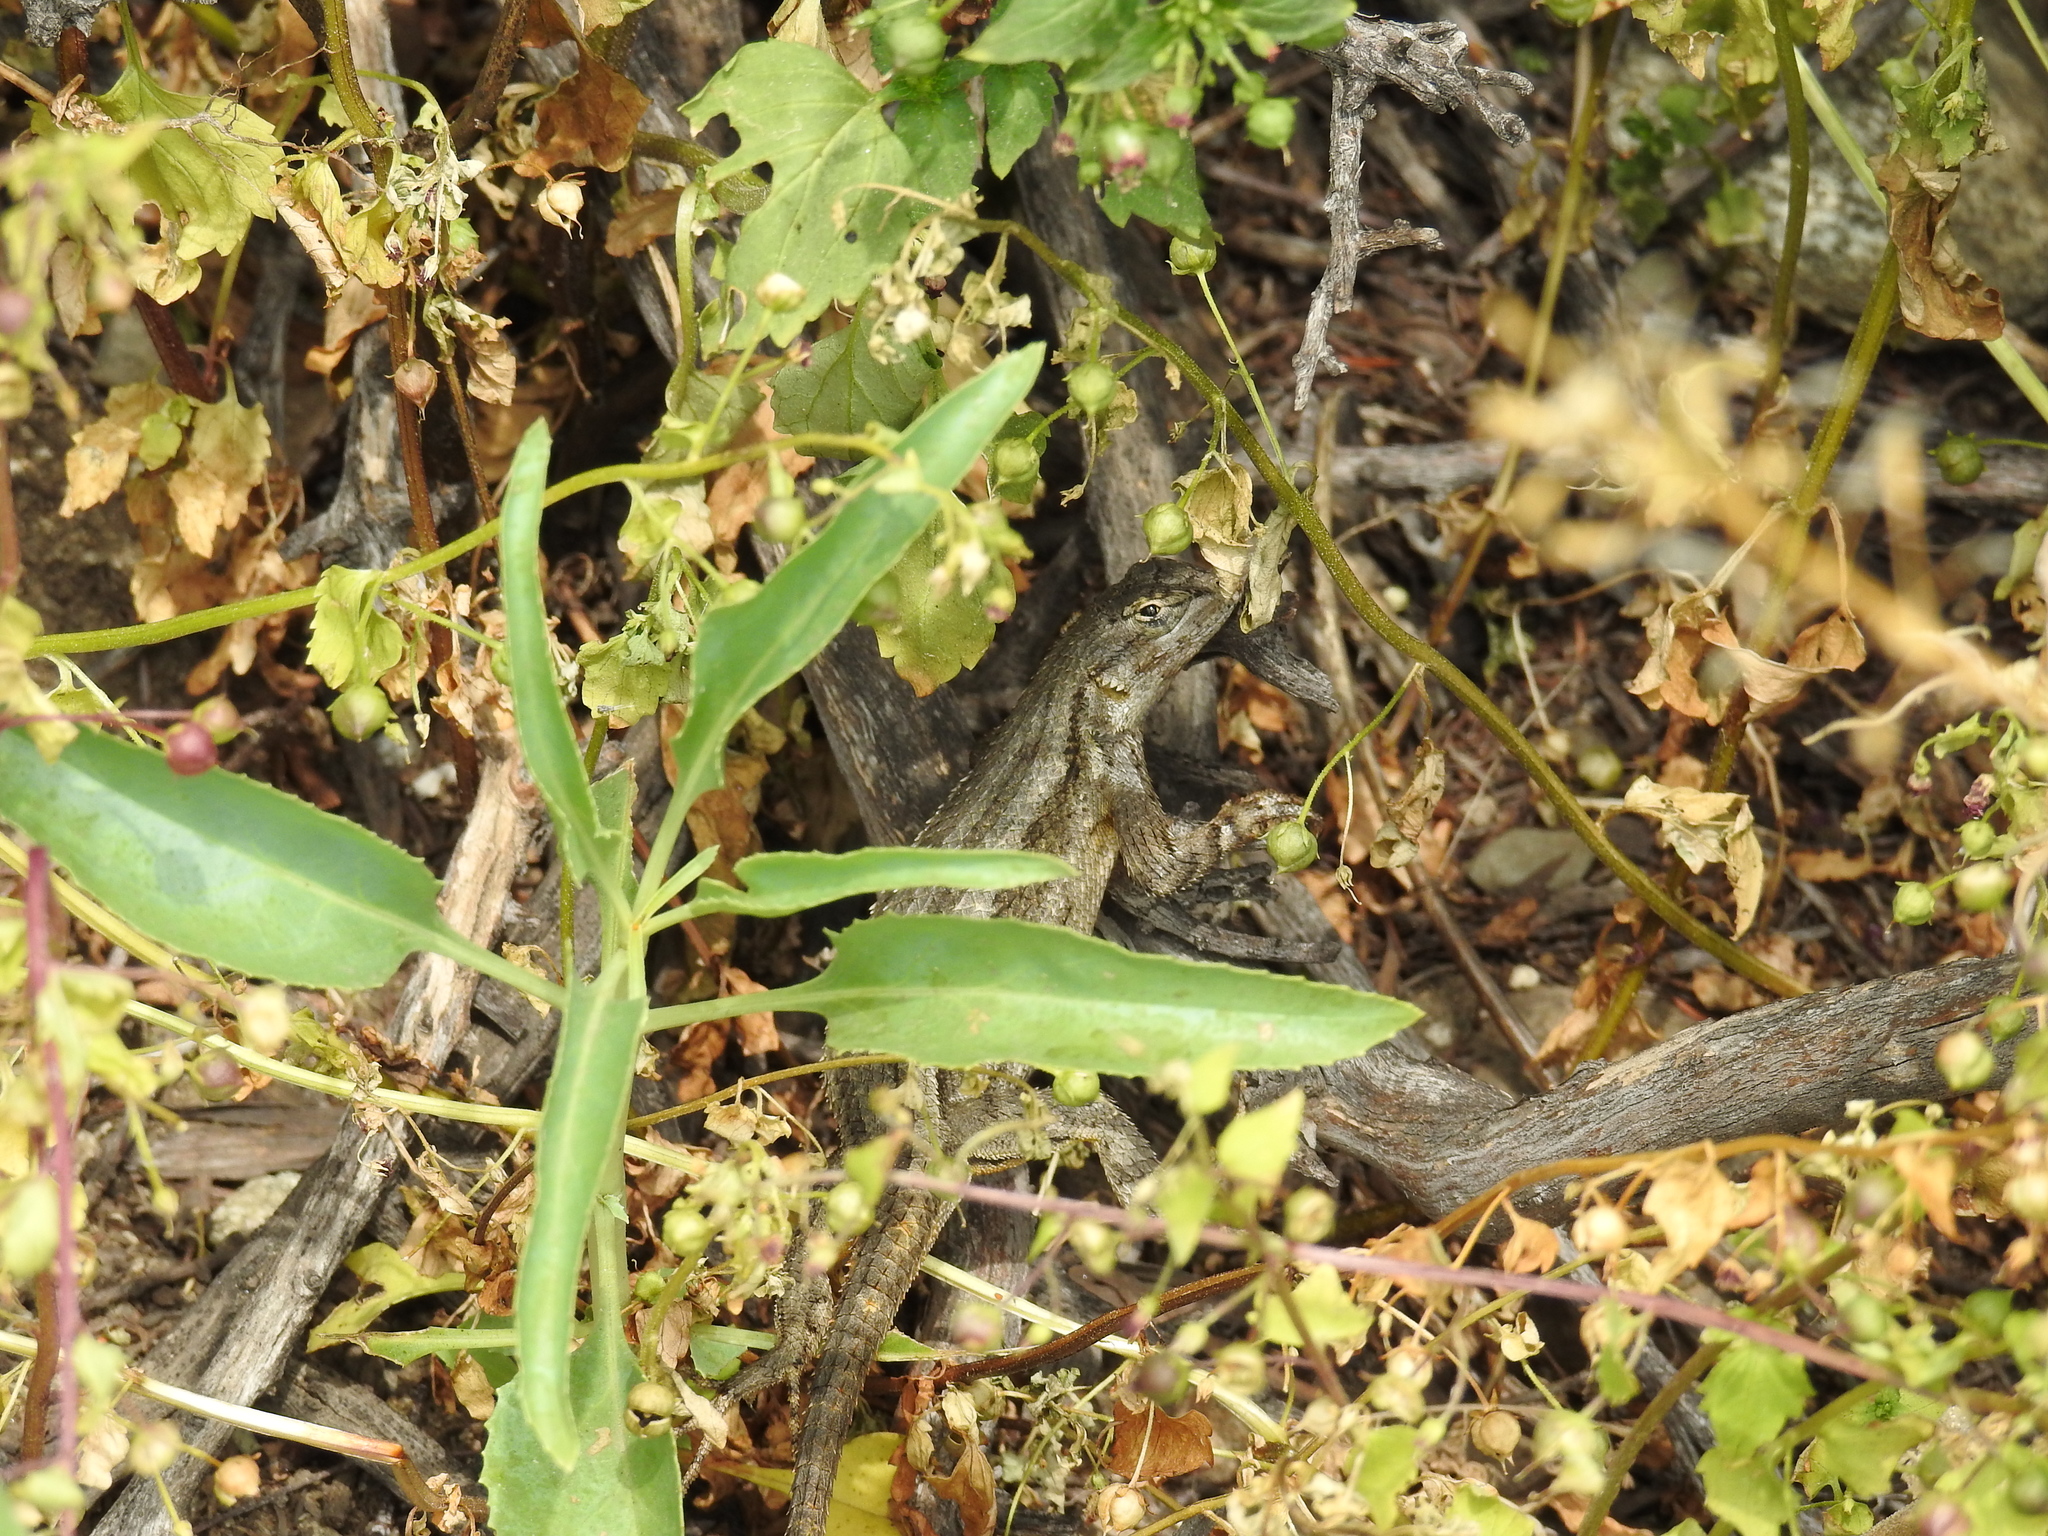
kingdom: Animalia
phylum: Chordata
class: Squamata
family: Phrynosomatidae
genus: Sceloporus
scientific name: Sceloporus occidentalis
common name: Western fence lizard
